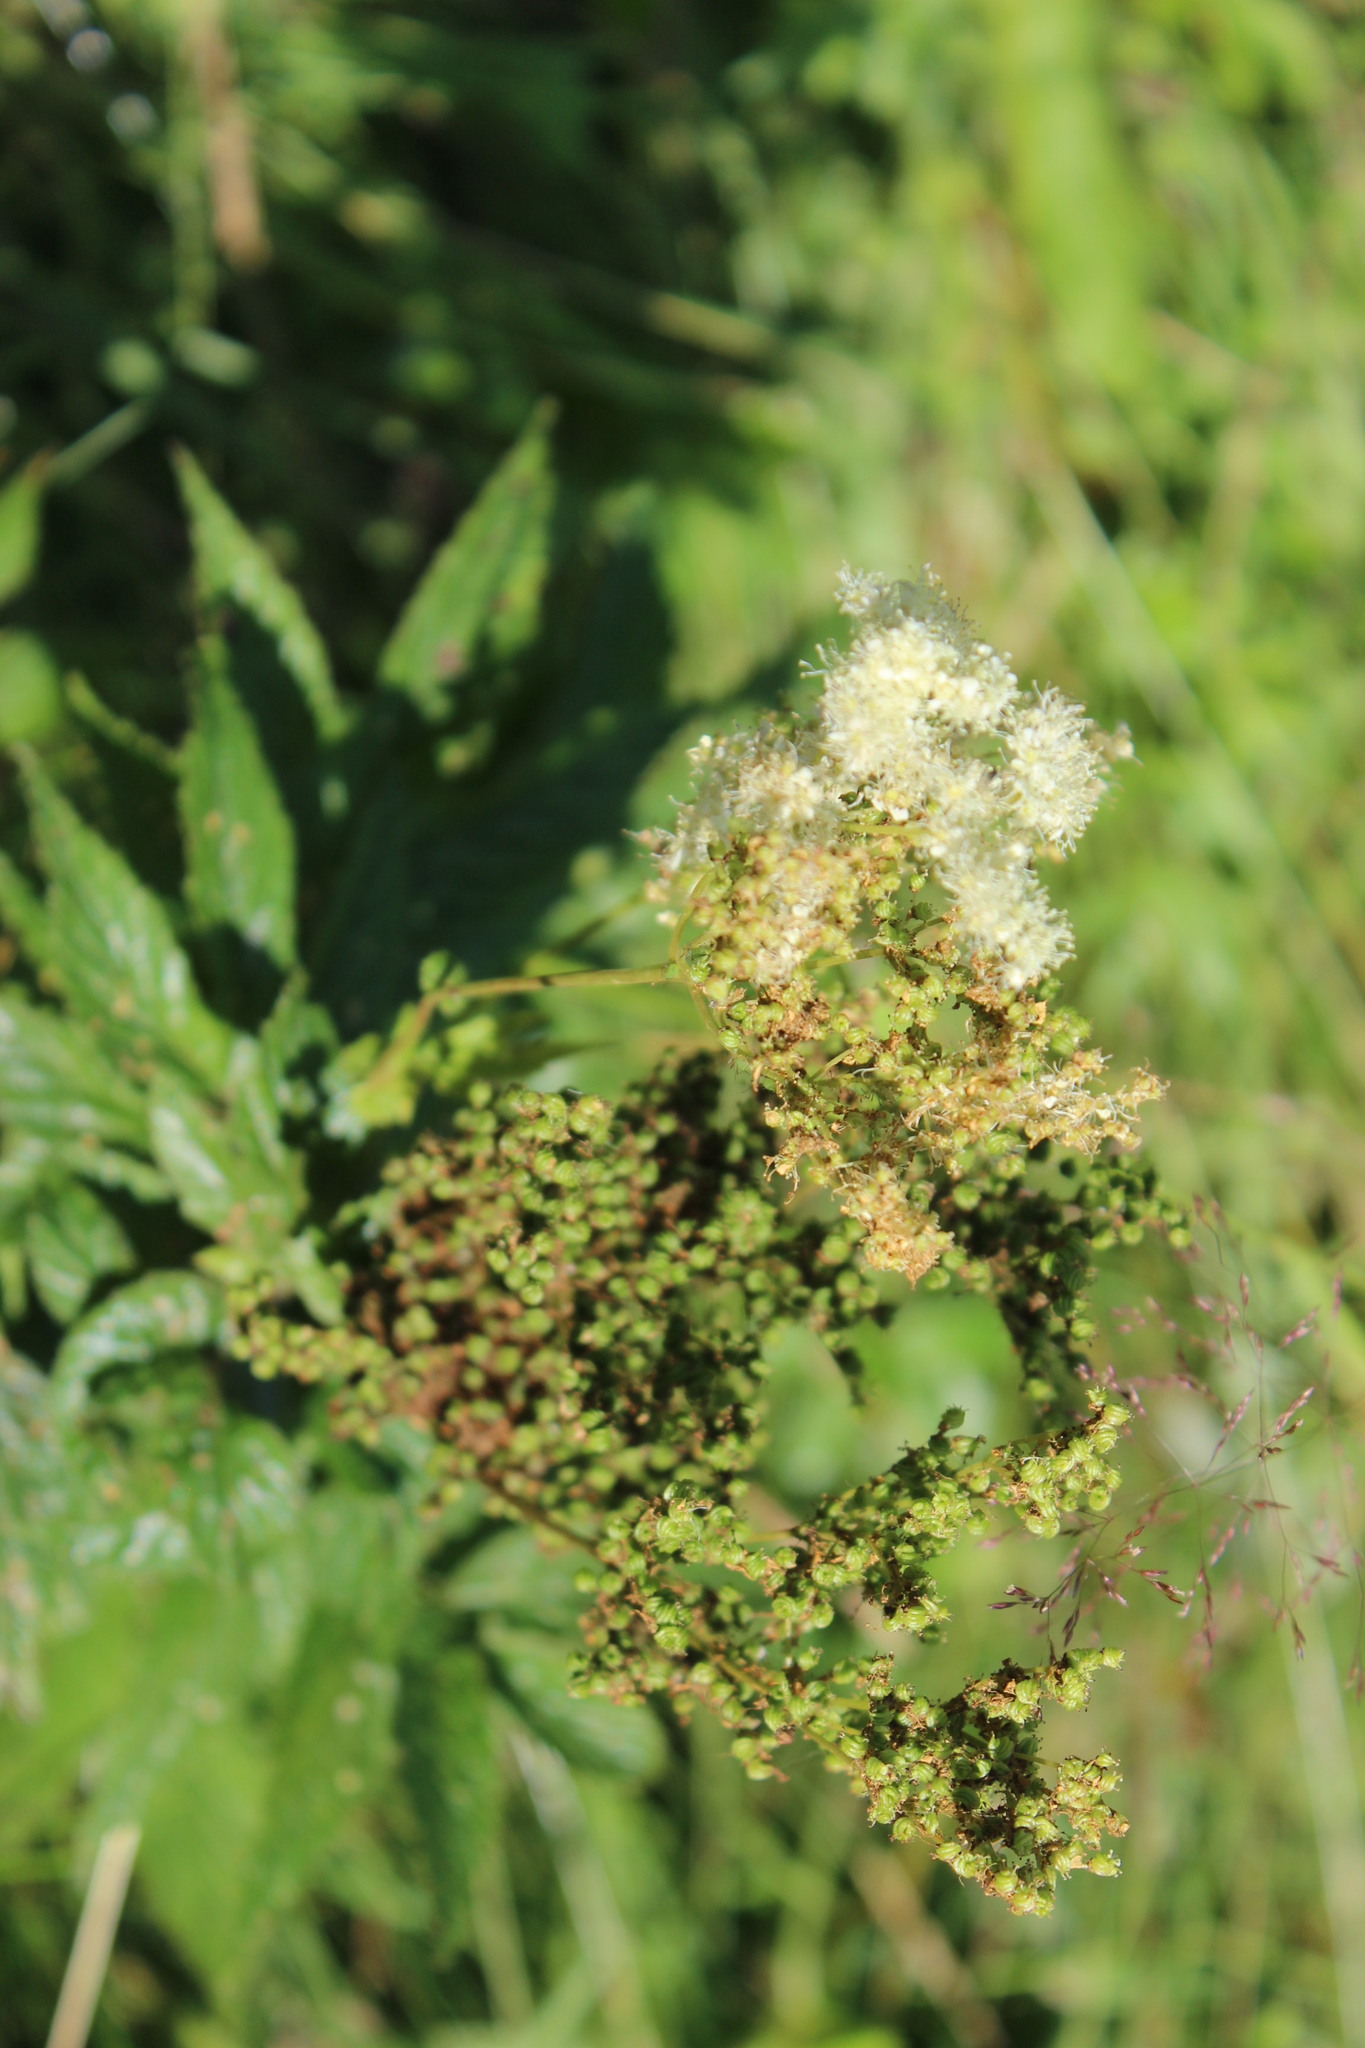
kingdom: Plantae
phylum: Tracheophyta
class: Magnoliopsida
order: Rosales
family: Rosaceae
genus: Filipendula
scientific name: Filipendula ulmaria
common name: Meadowsweet
